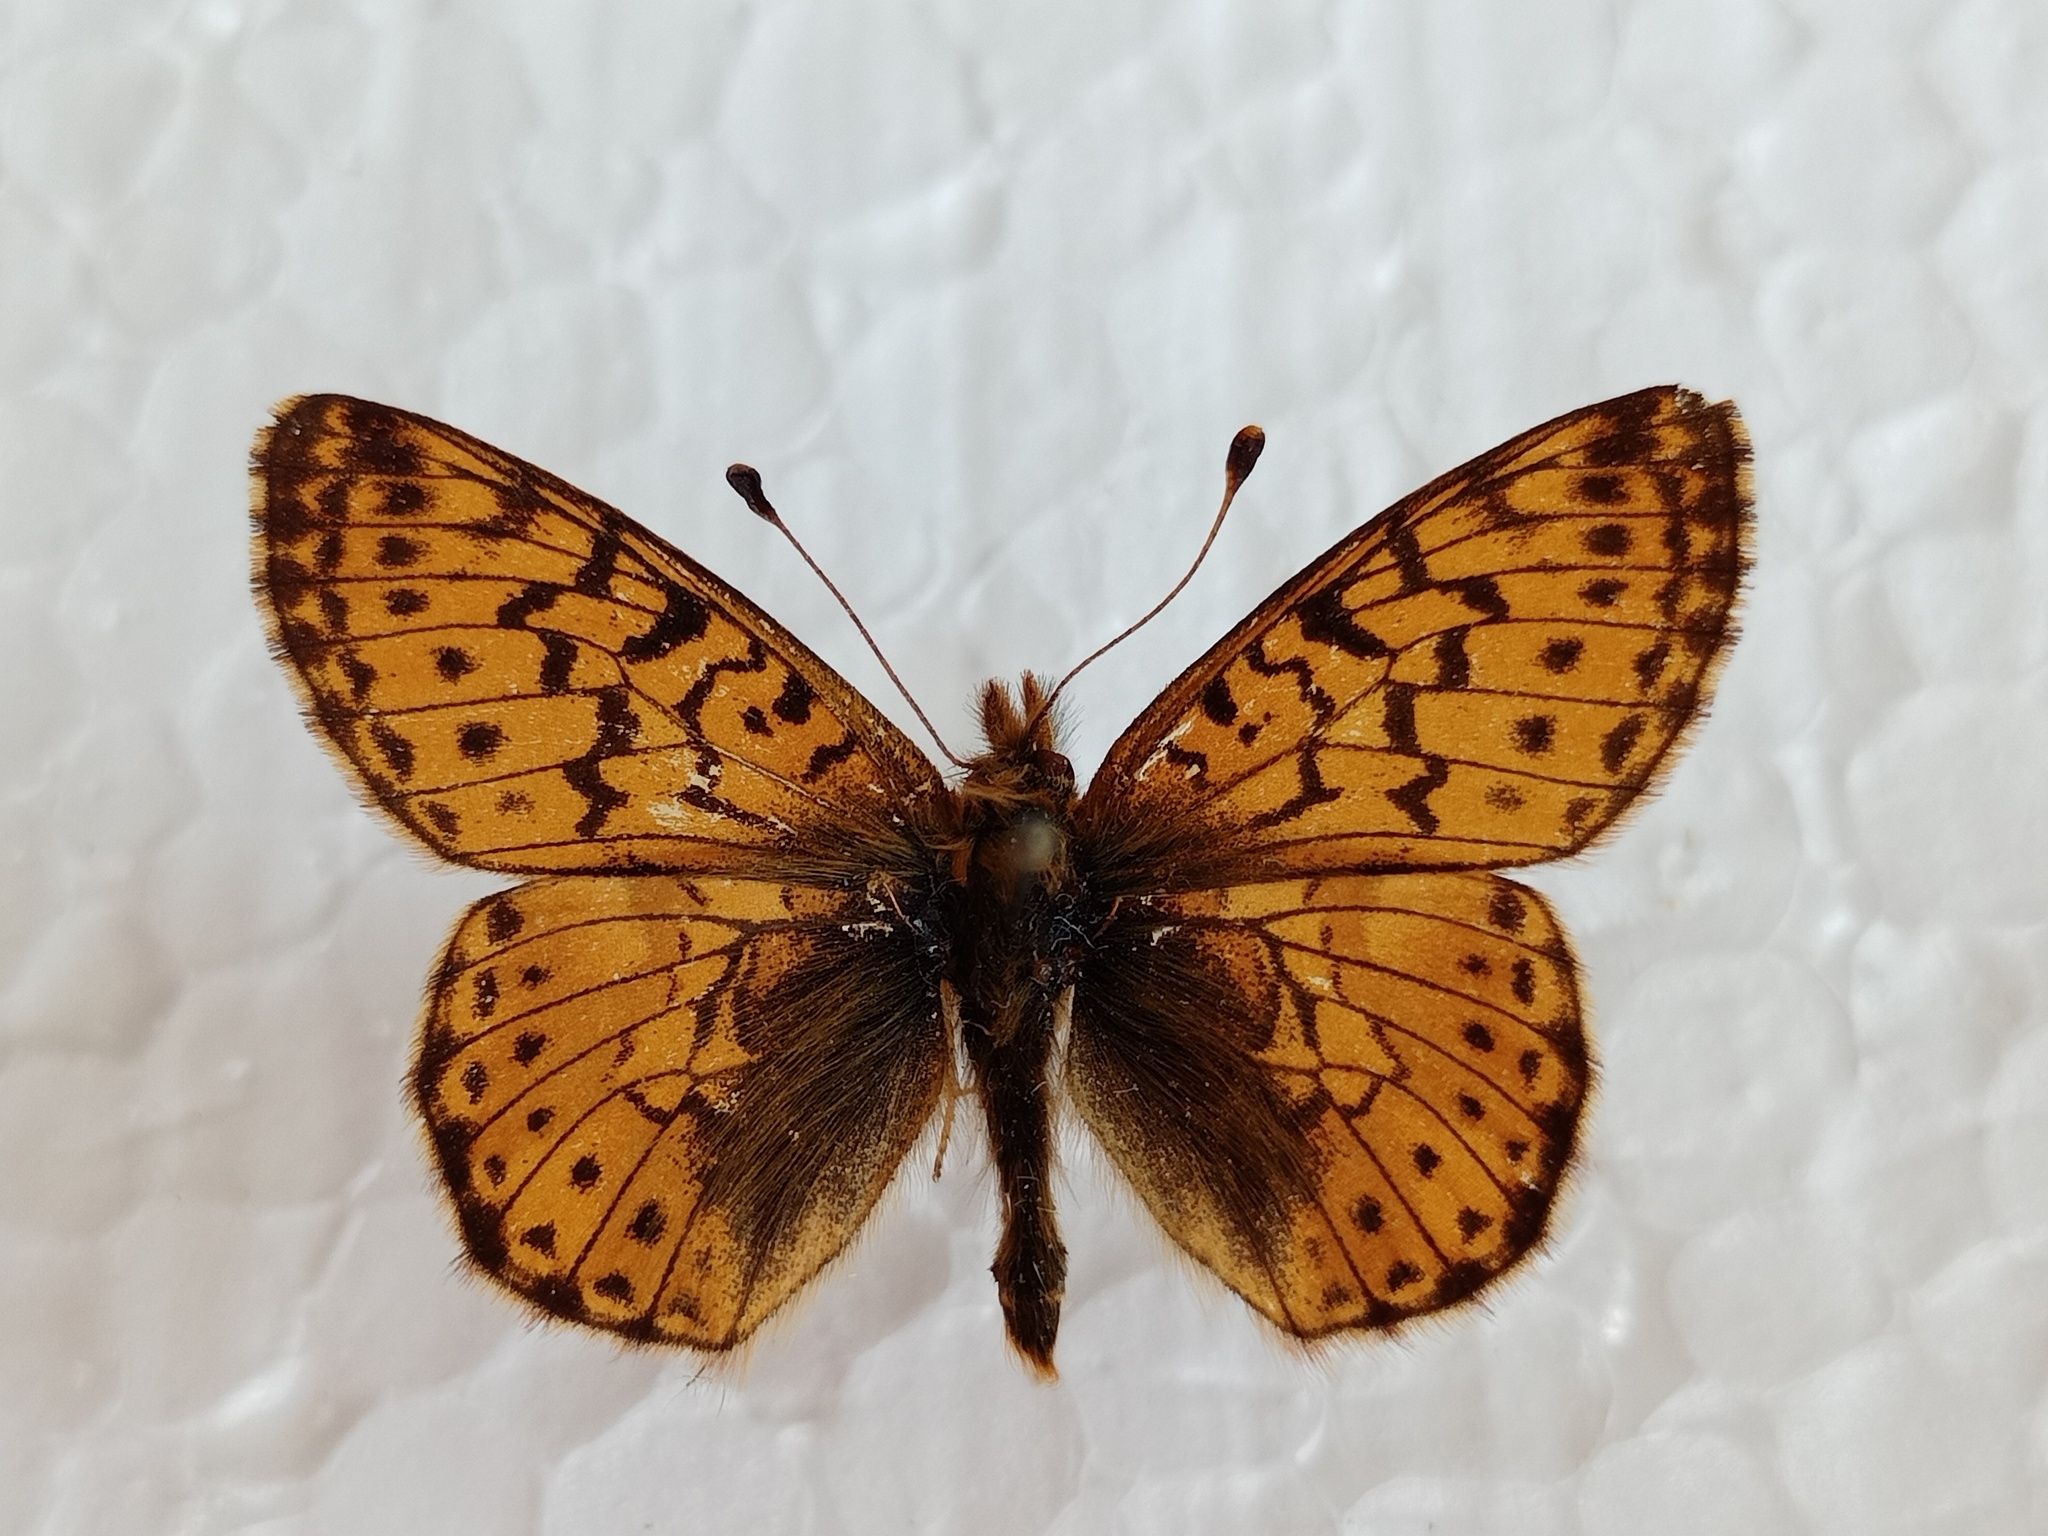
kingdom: Animalia
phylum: Arthropoda
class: Insecta
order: Lepidoptera
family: Nymphalidae
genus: Boloria
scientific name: Boloria pales
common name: Shepherd's fritillary
